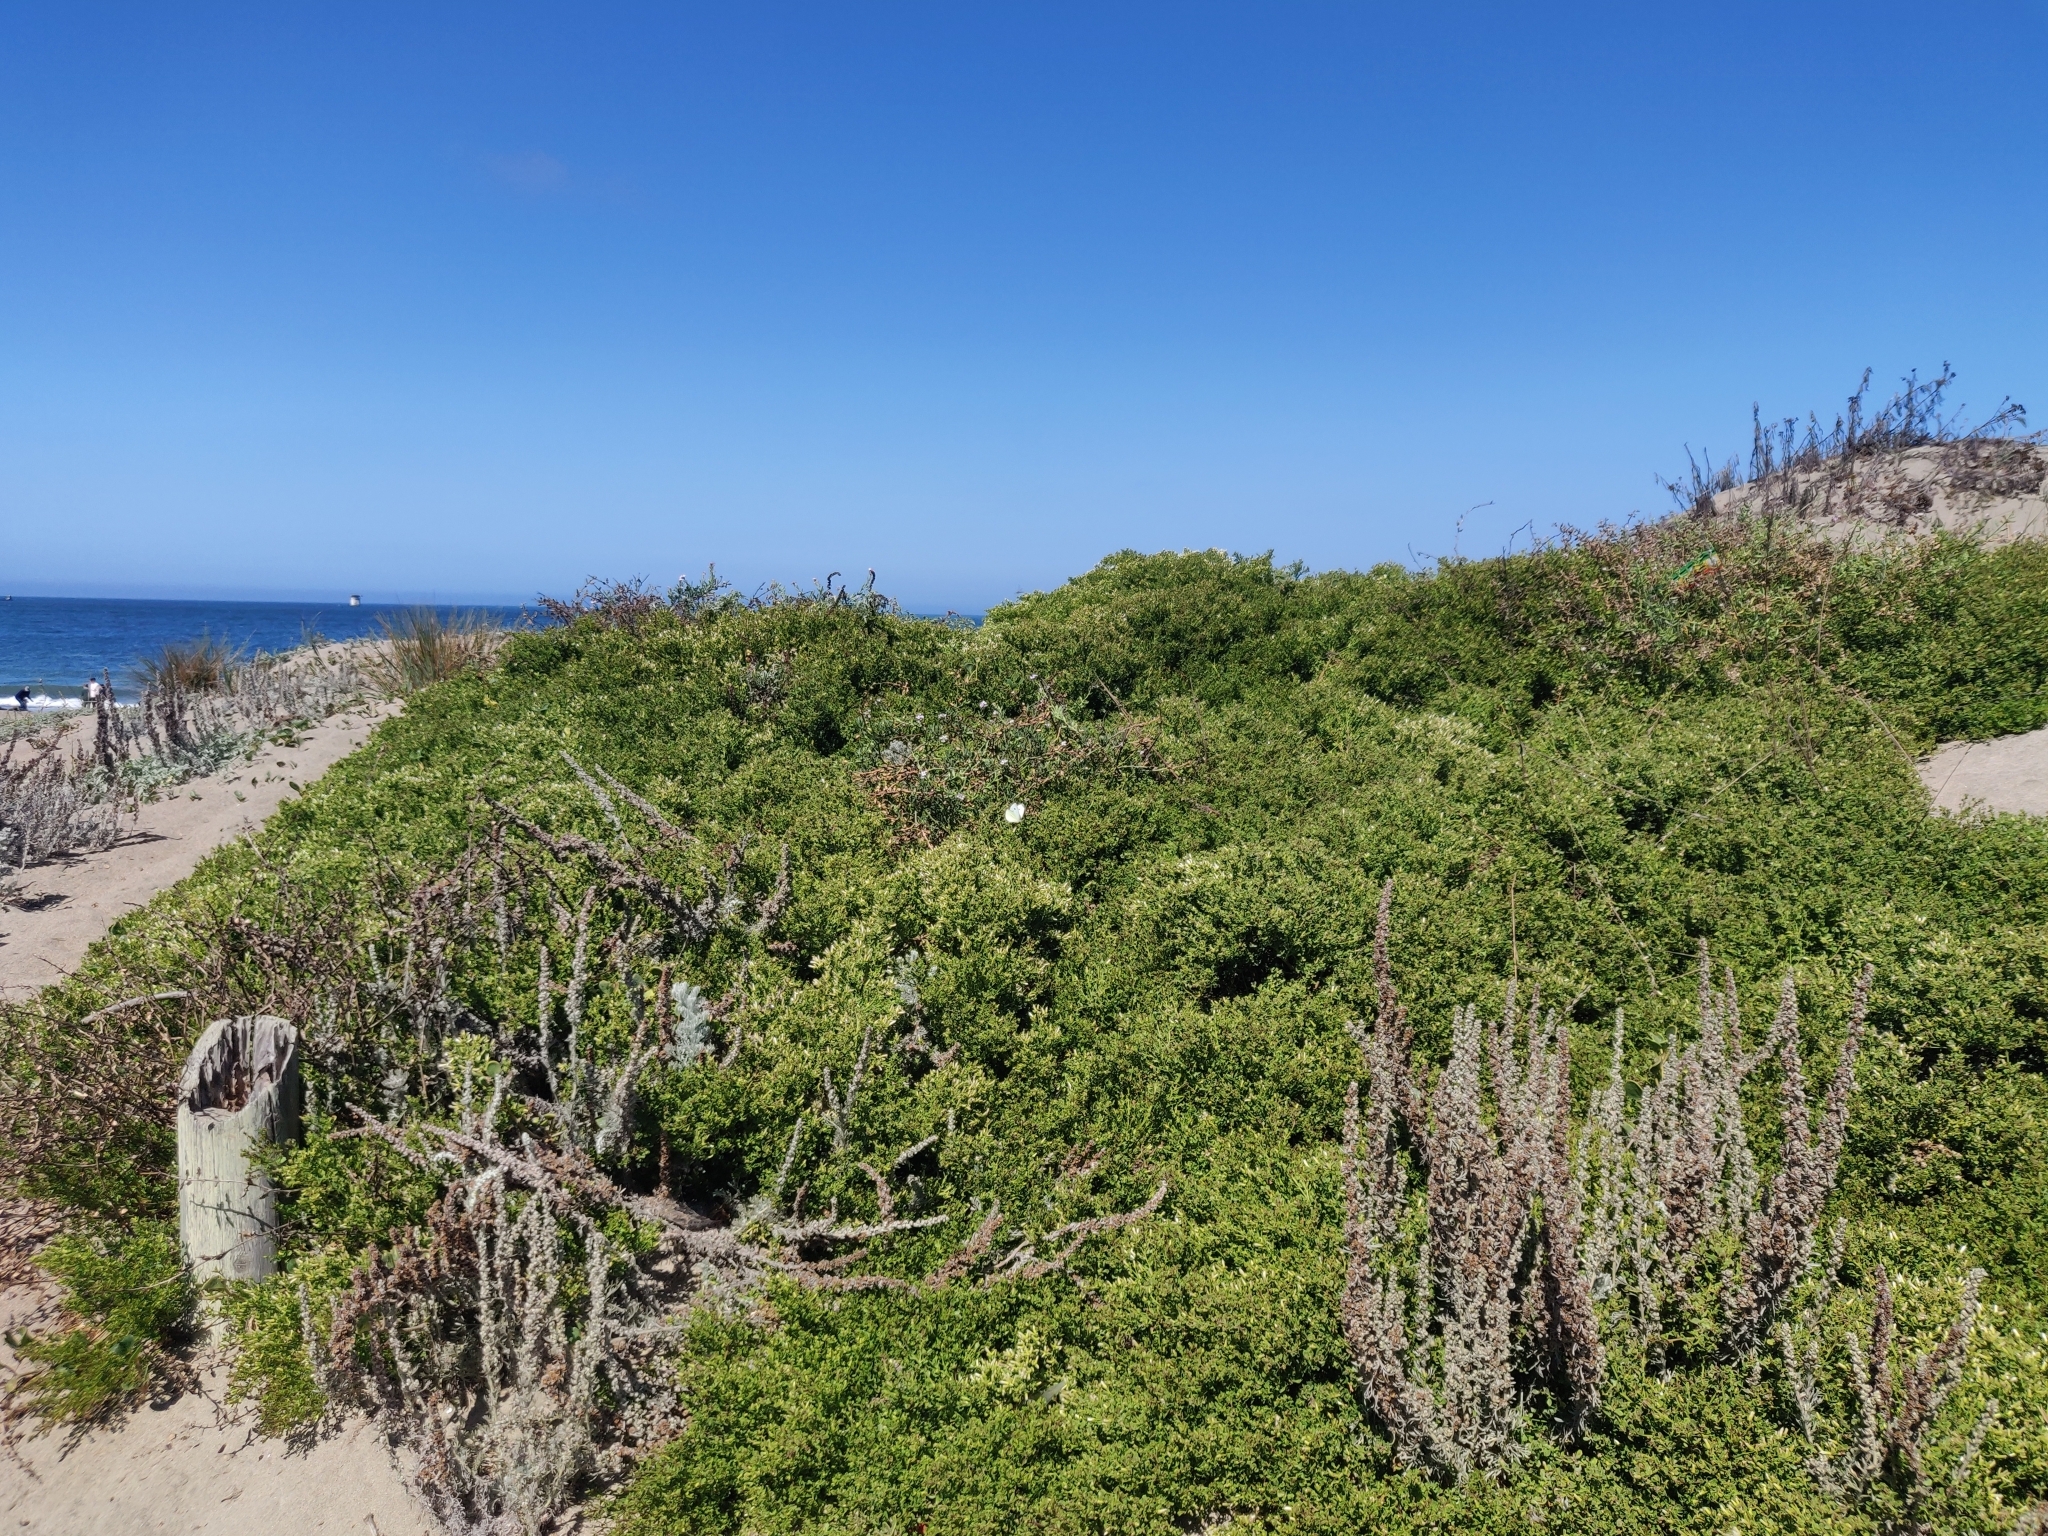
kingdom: Animalia
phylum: Arthropoda
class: Insecta
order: Lepidoptera
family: Pieridae
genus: Pieris
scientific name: Pieris rapae
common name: Small white
